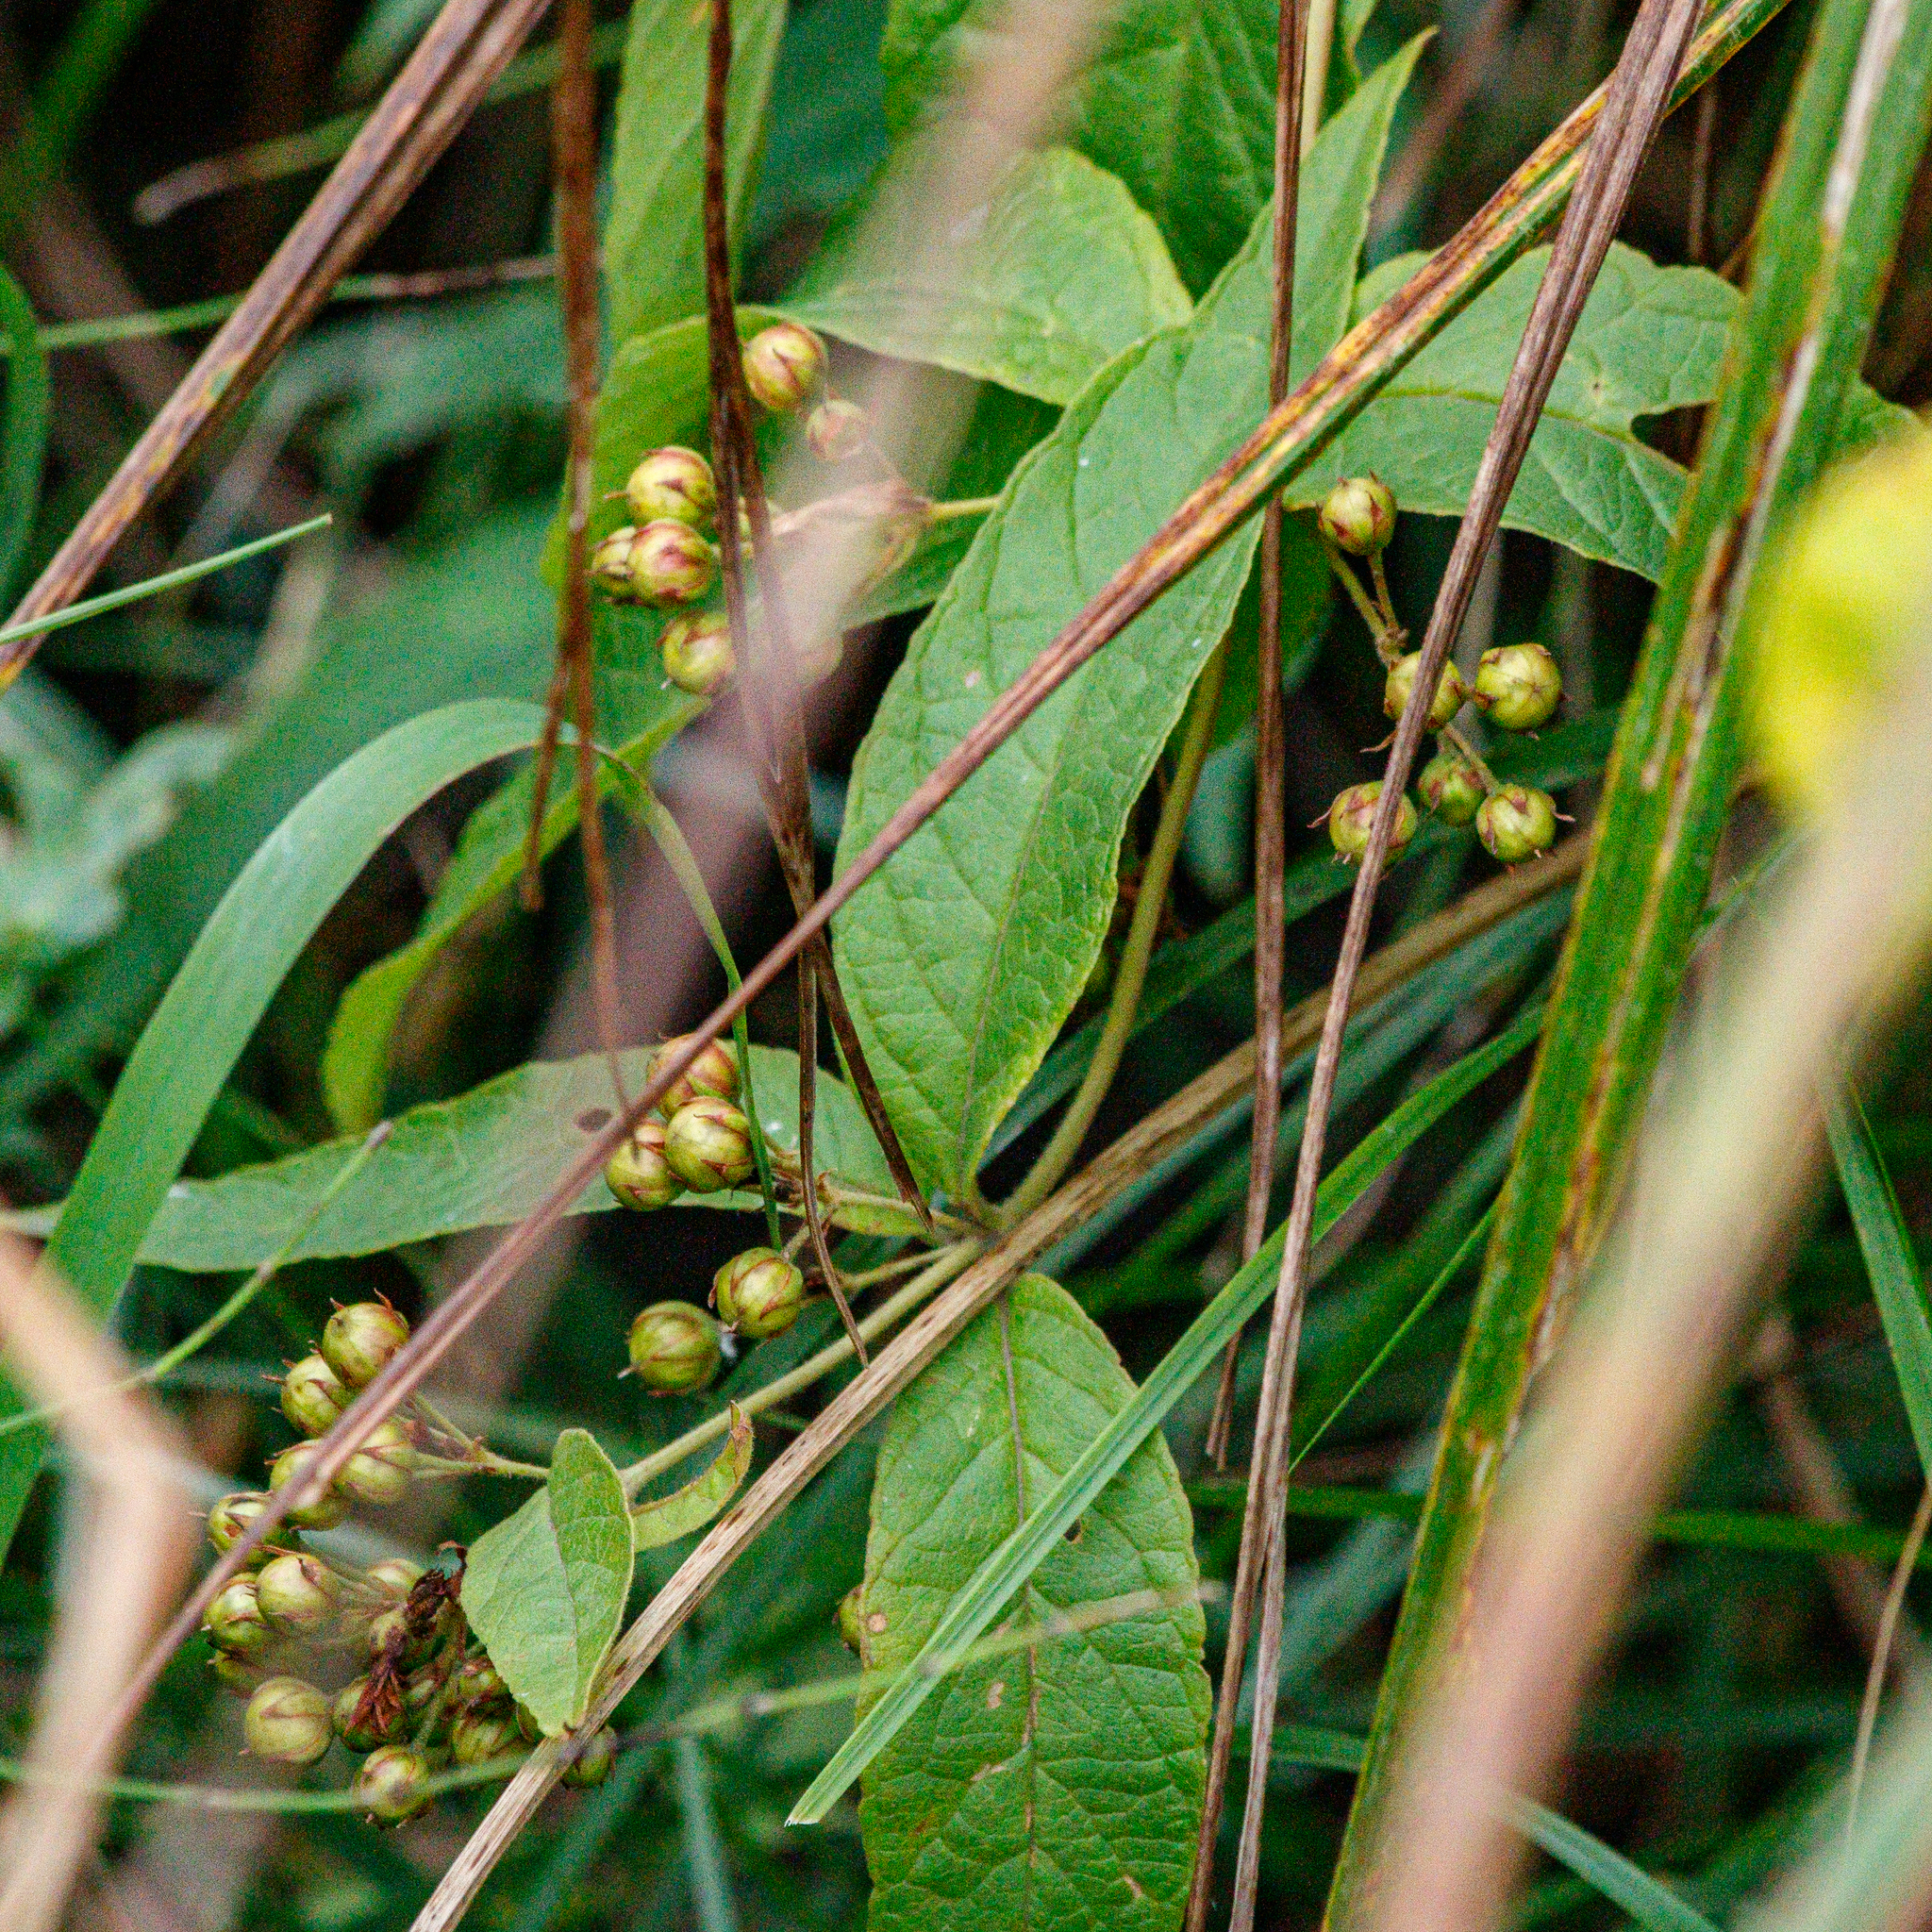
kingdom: Plantae
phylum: Tracheophyta
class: Magnoliopsida
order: Ericales
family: Primulaceae
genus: Lysimachia
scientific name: Lysimachia vulgaris
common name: Yellow loosestrife
